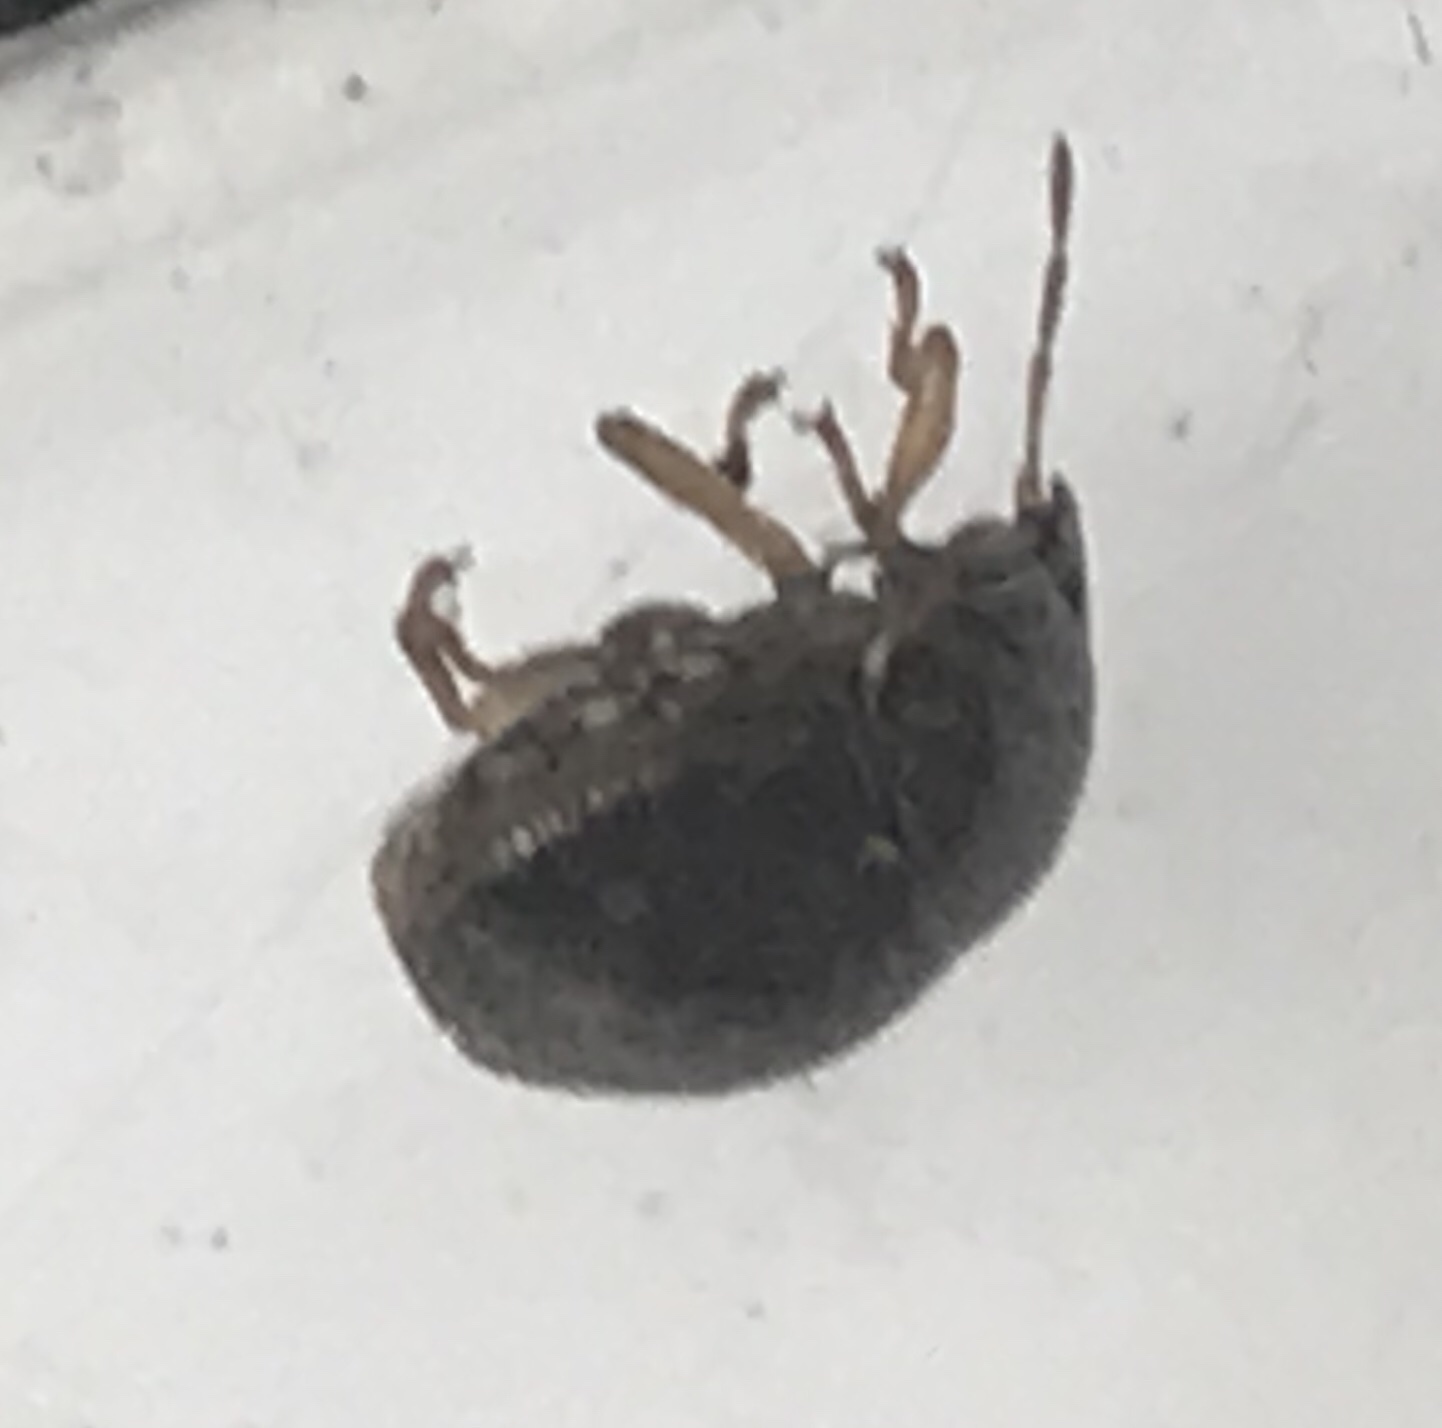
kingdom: Animalia
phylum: Arthropoda
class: Insecta
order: Hemiptera
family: Plataspidae
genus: Megacopta
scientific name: Megacopta cribraria
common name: Bean plataspid
